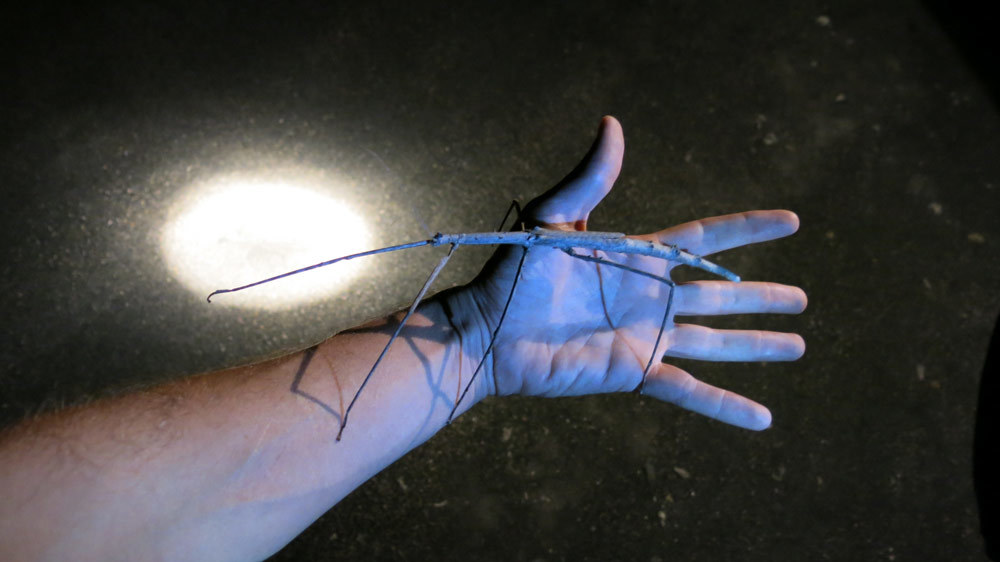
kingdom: Animalia
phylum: Arthropoda
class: Insecta
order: Phasmida
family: Diapheromeridae
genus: Bactrododema
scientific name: Bactrododema tiaratum
